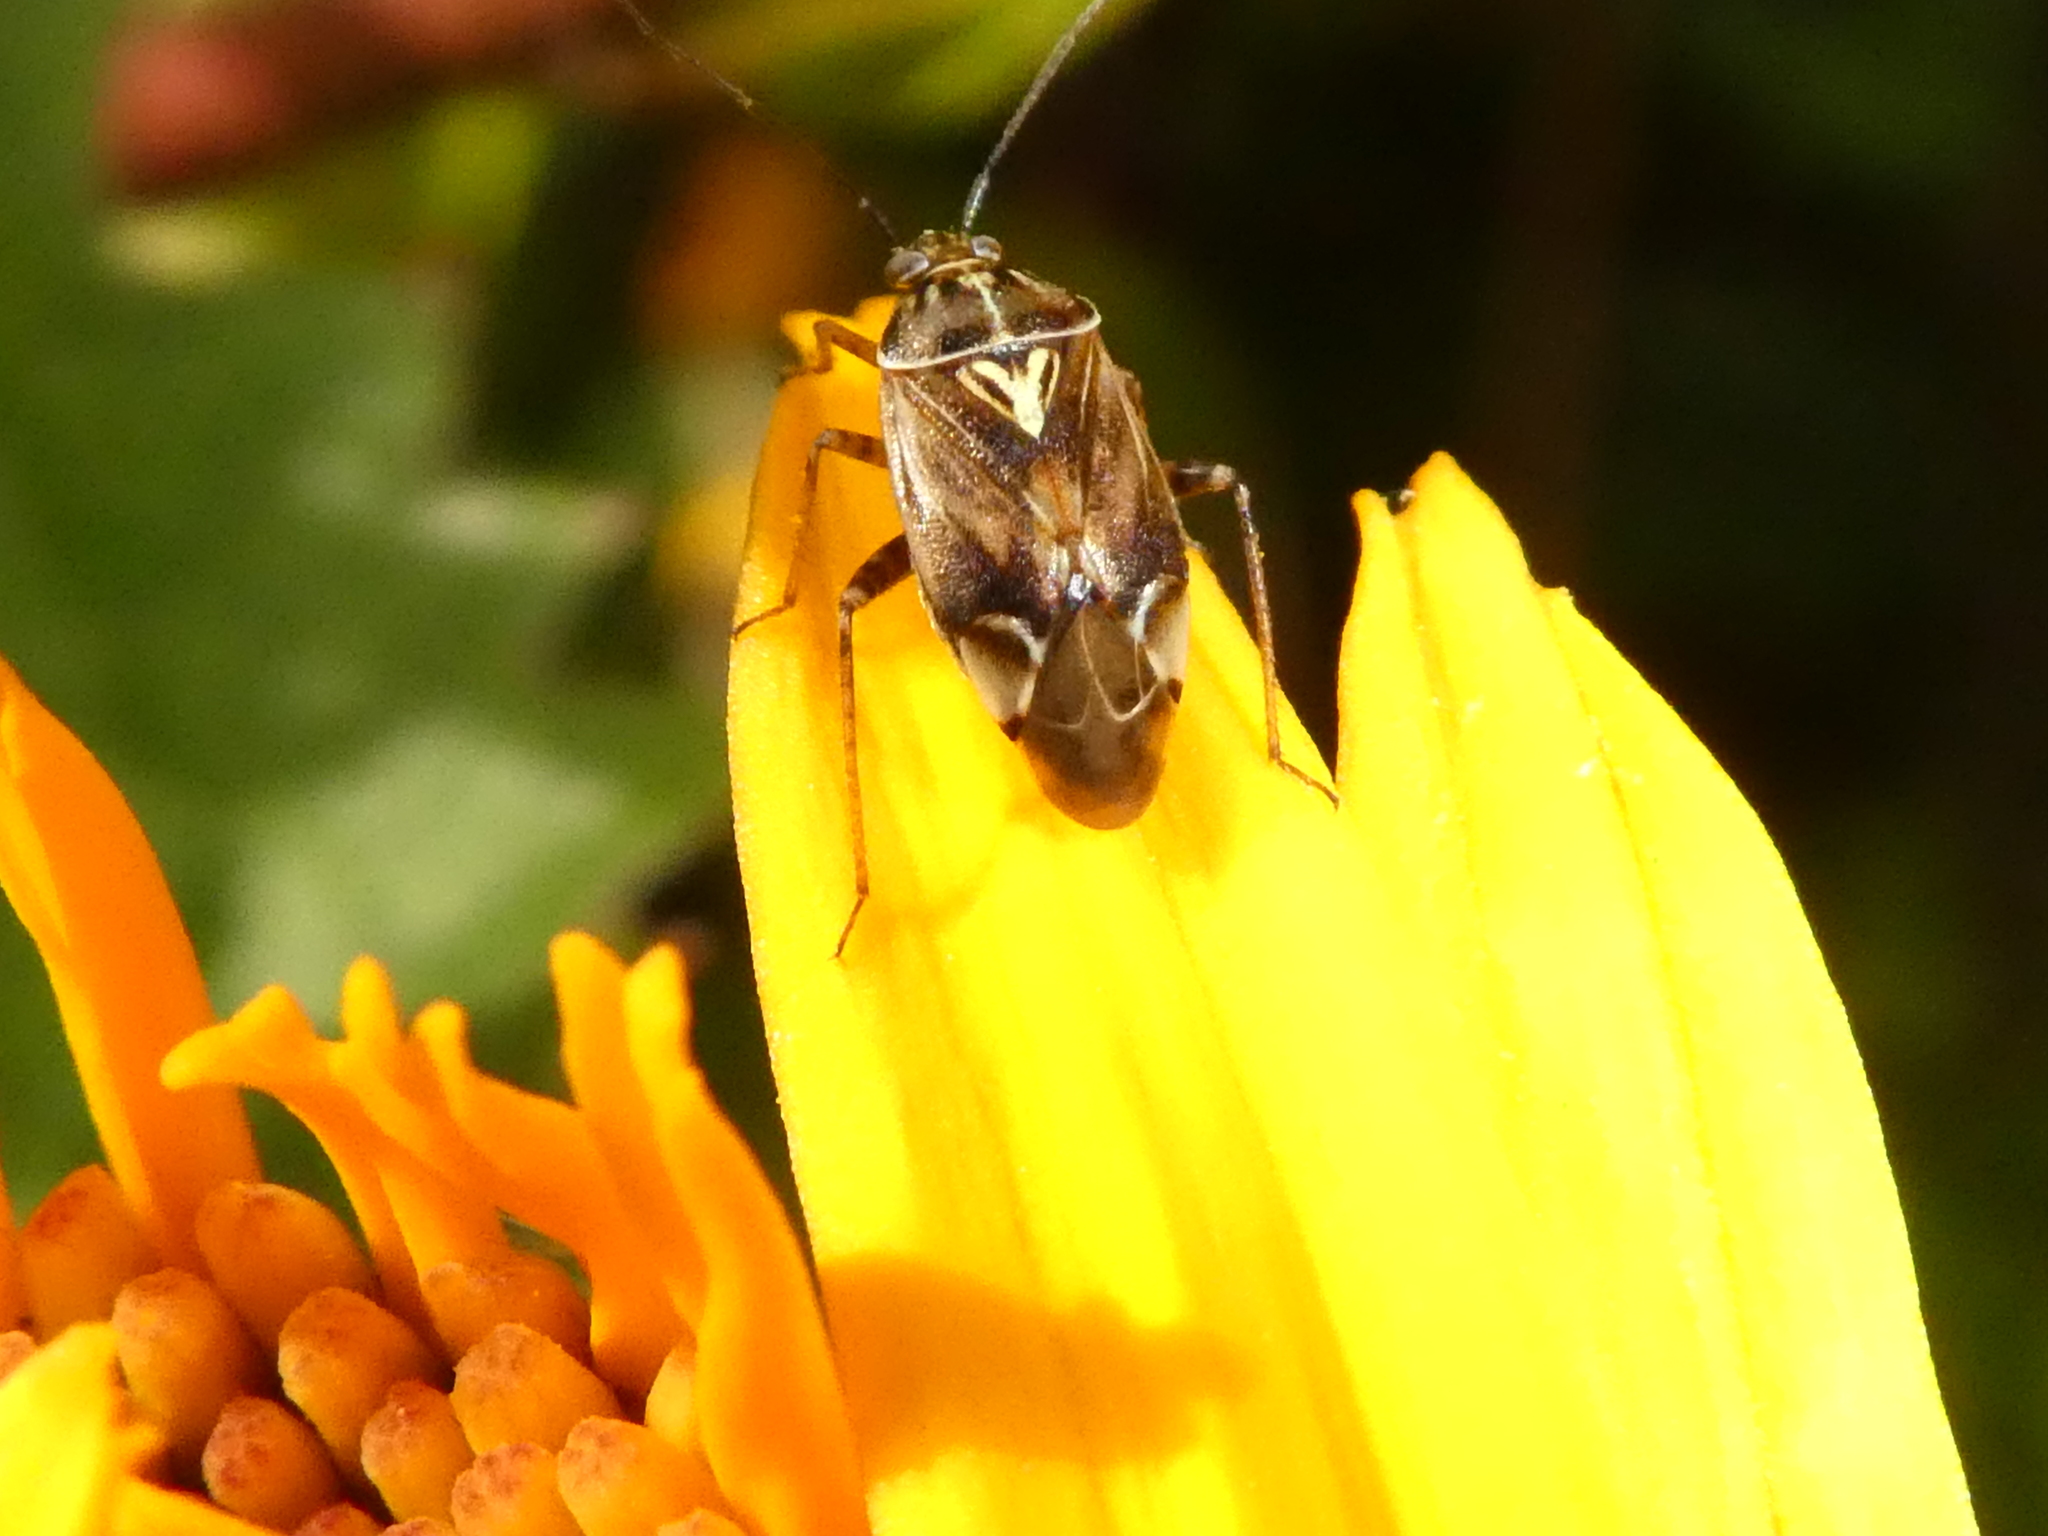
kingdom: Animalia
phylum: Arthropoda
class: Insecta
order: Hemiptera
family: Miridae
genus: Lygus
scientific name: Lygus lineolaris
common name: North american tarnished plant bug
